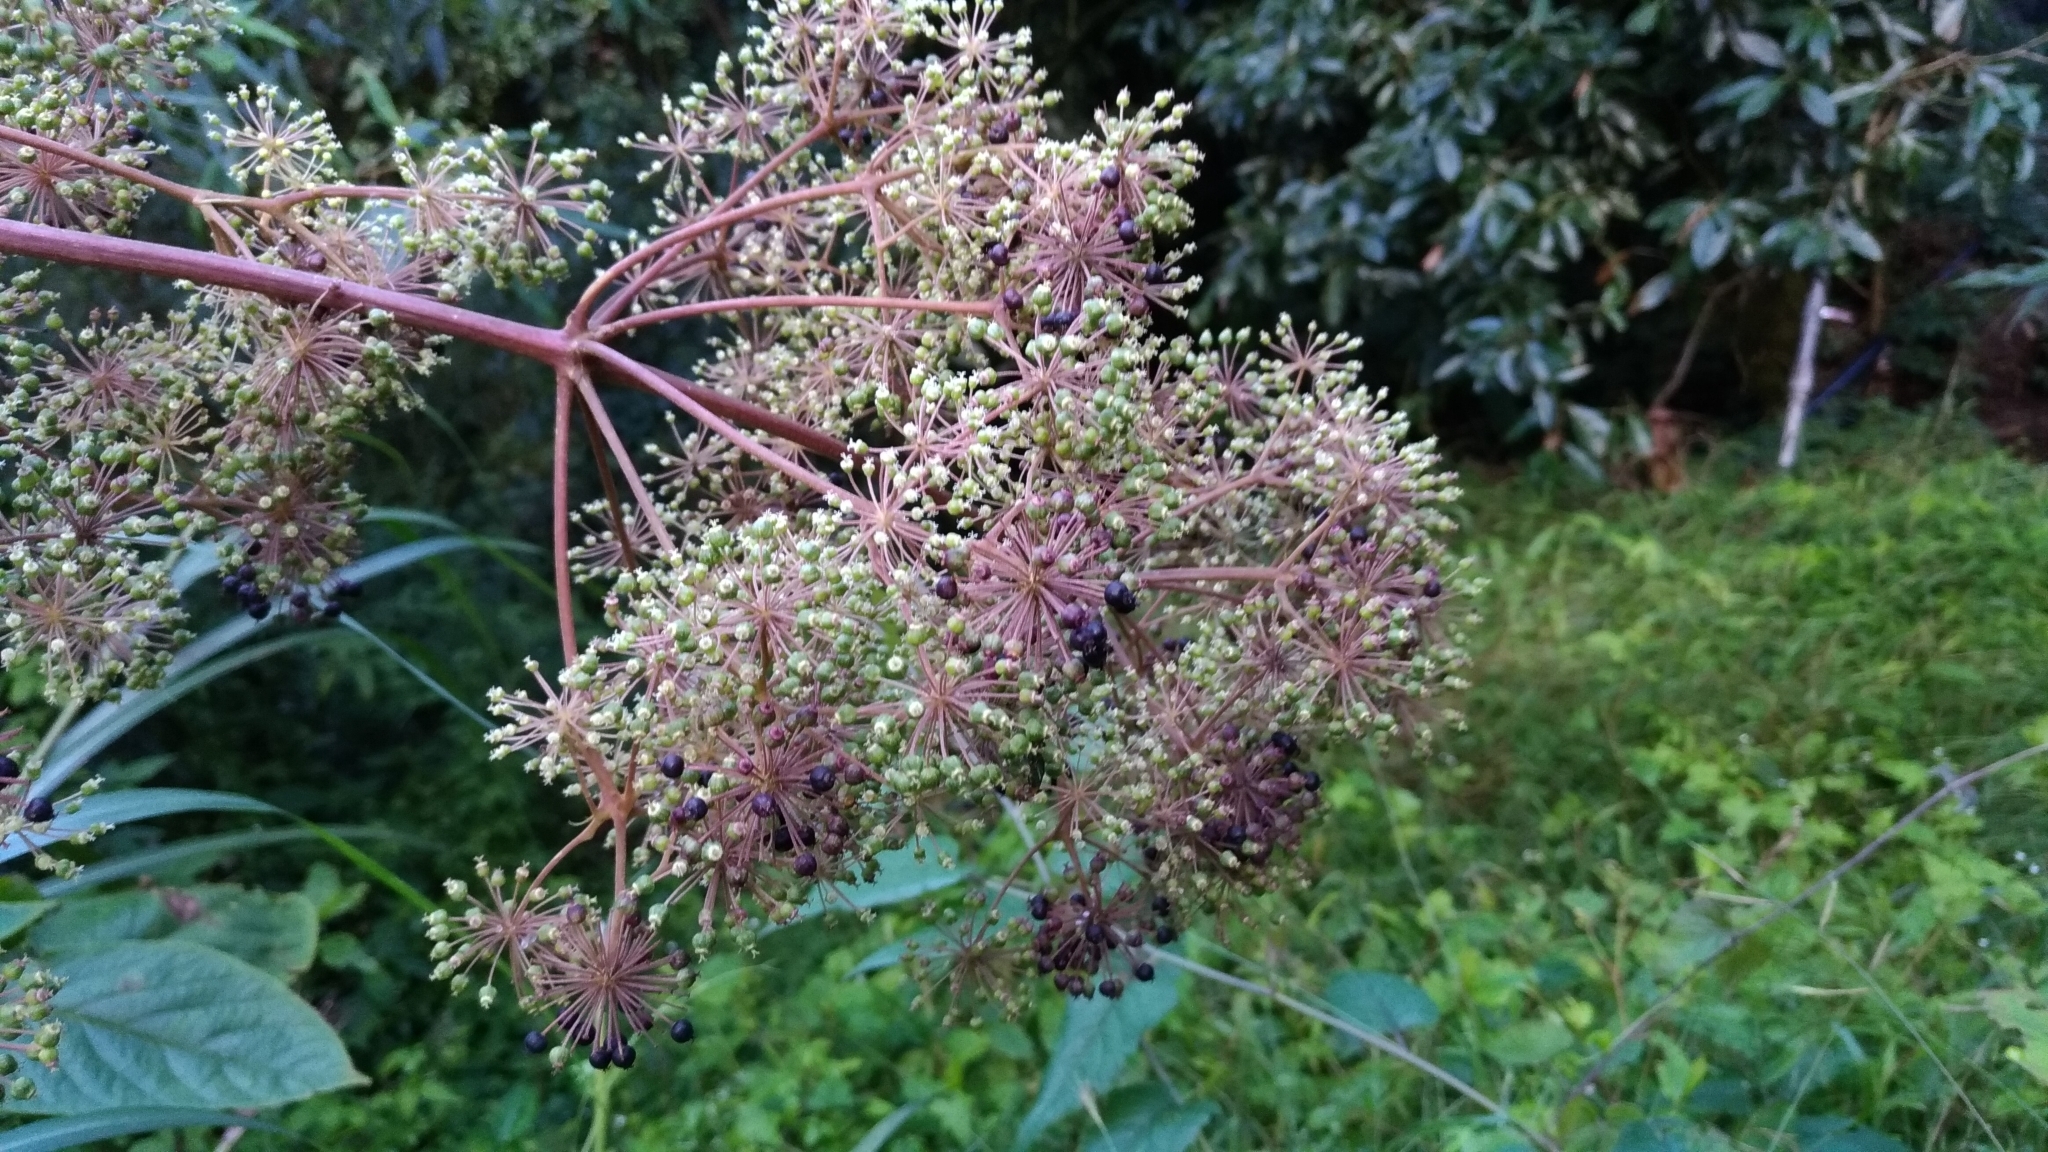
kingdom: Plantae
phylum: Tracheophyta
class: Magnoliopsida
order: Apiales
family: Araliaceae
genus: Aralia
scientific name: Aralia cordata
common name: Udo
